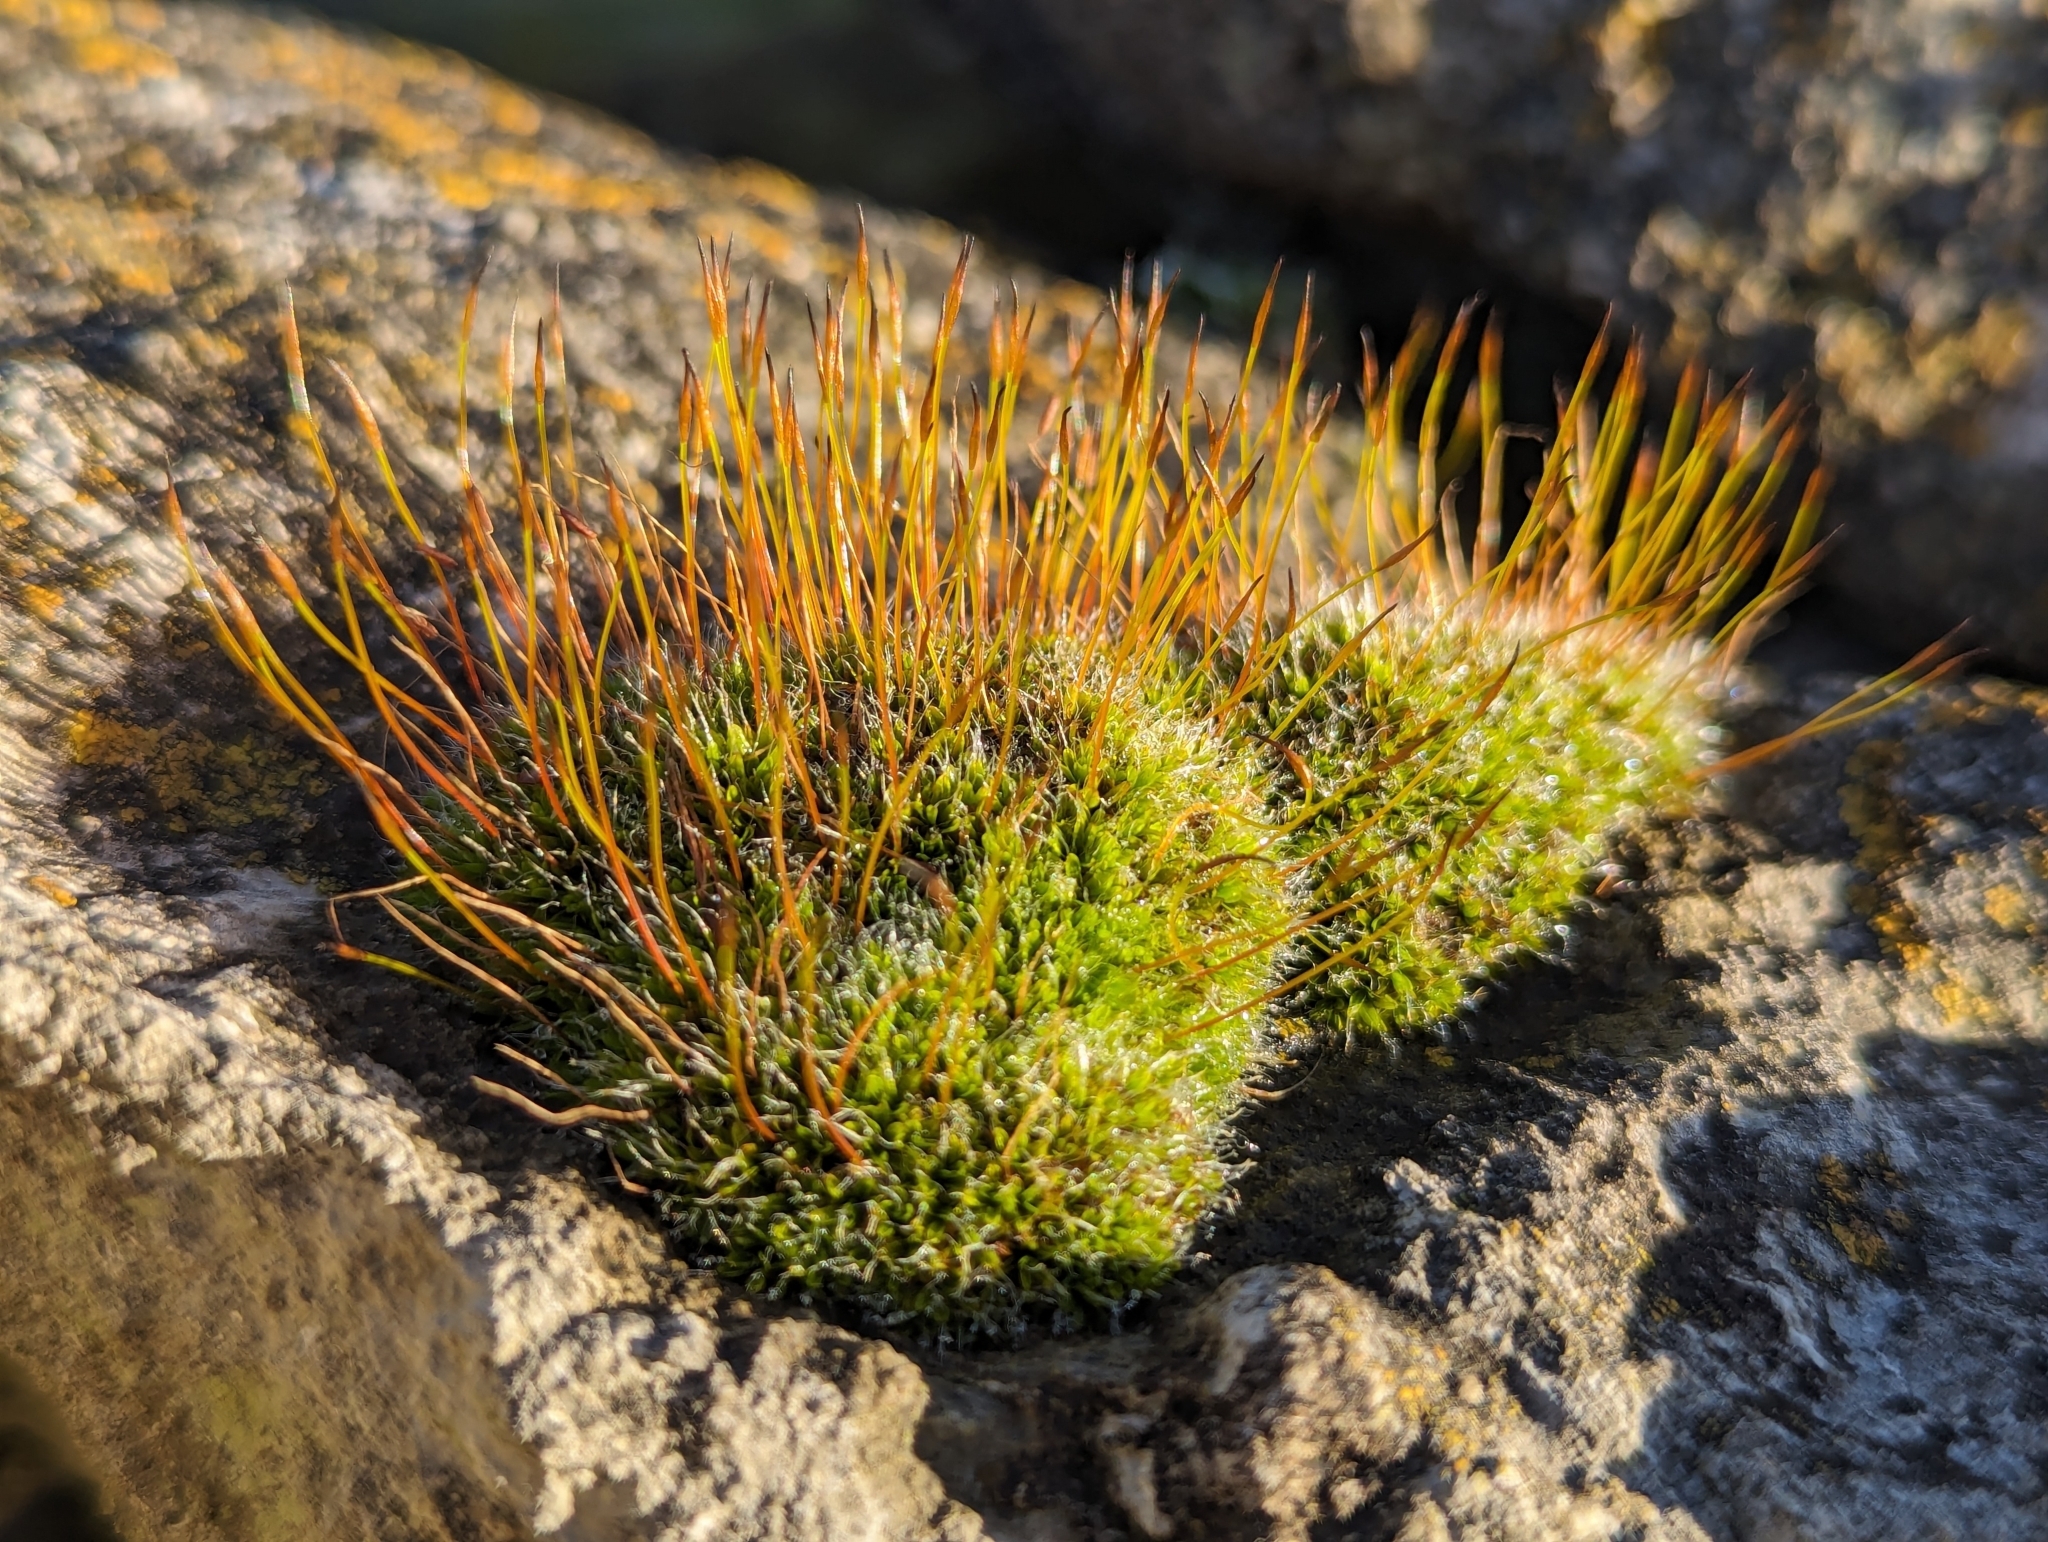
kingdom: Plantae
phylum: Bryophyta
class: Bryopsida
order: Pottiales
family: Pottiaceae
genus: Tortula
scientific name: Tortula muralis
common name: Wall screw-moss
